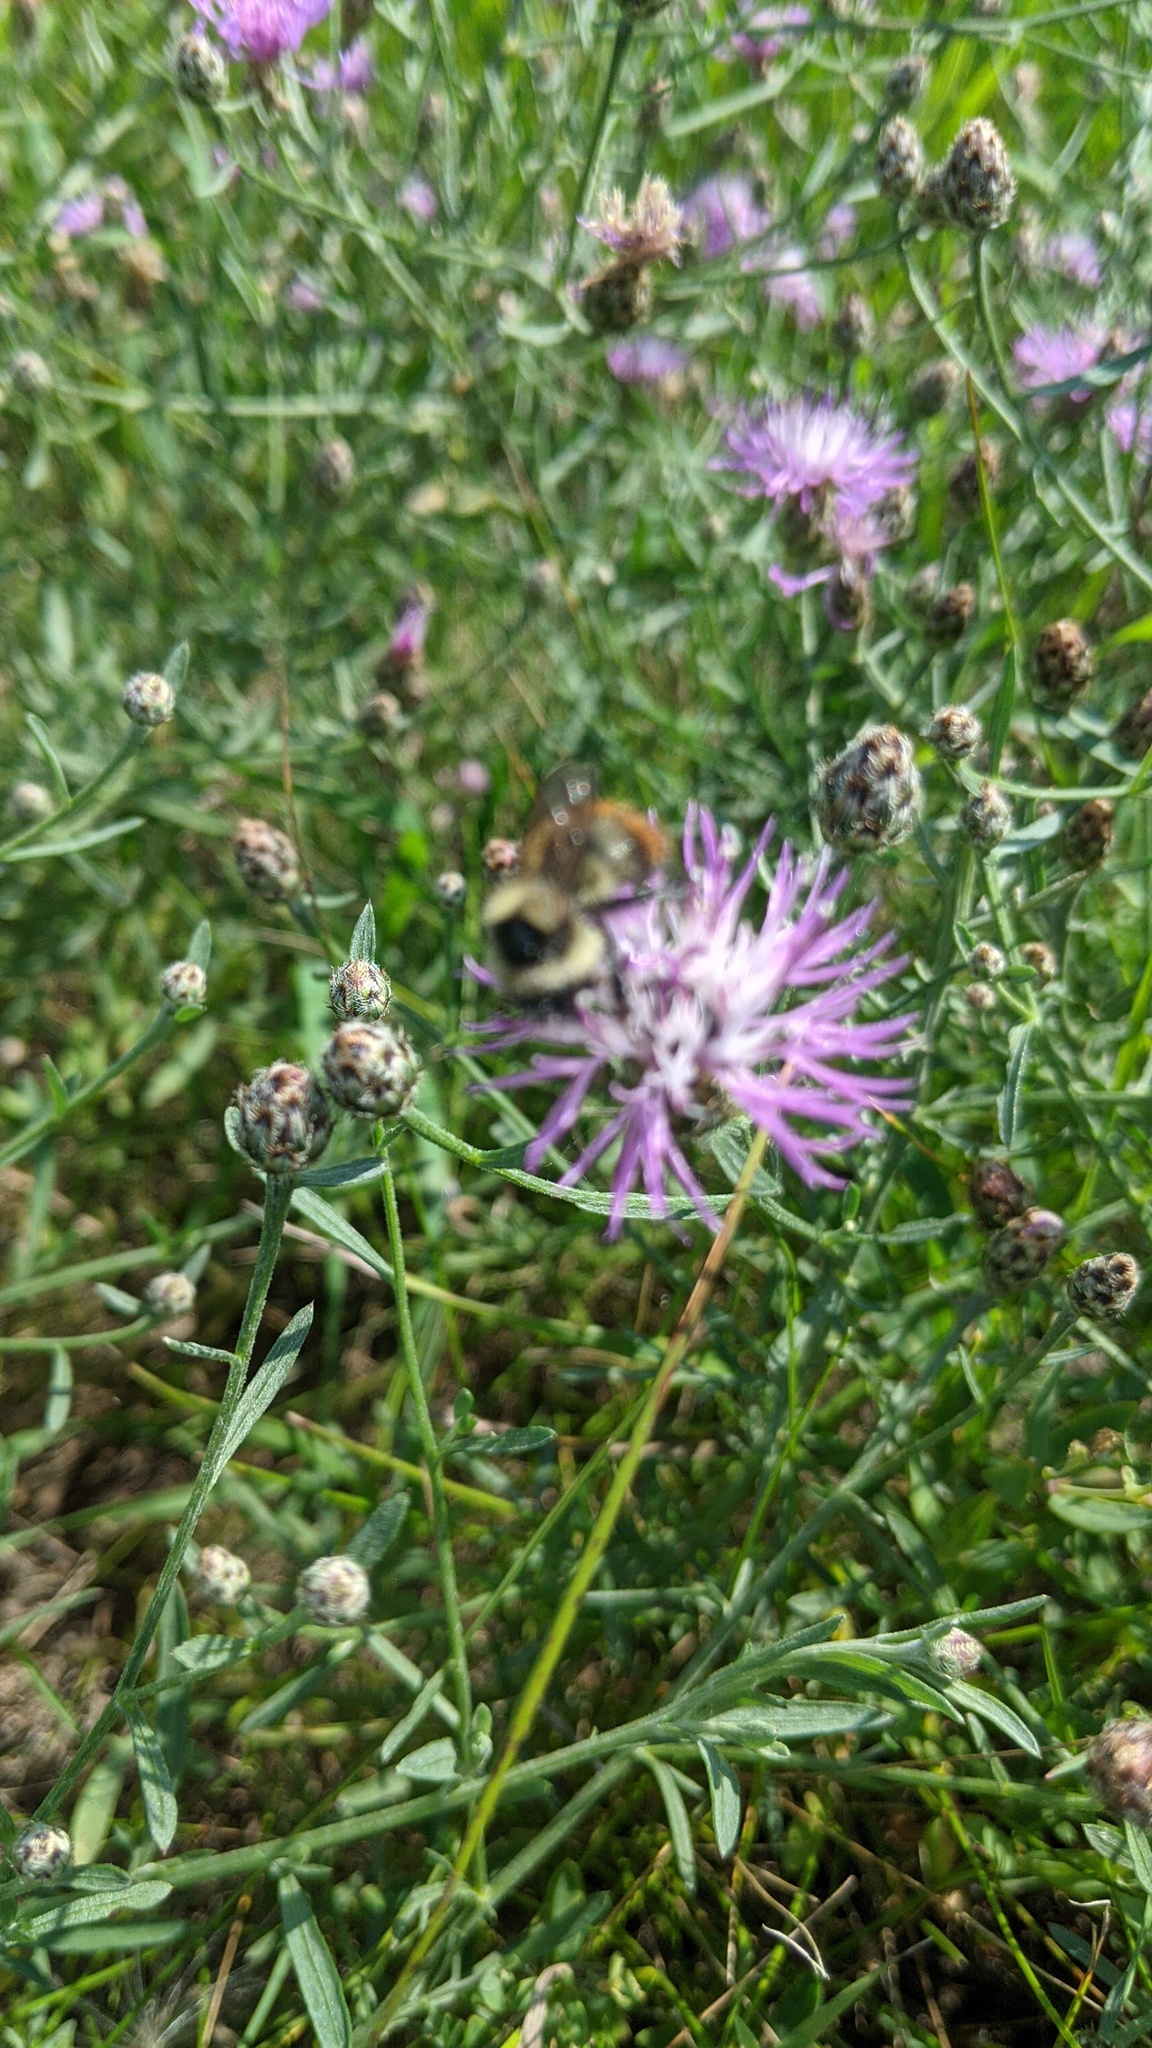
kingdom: Animalia
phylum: Arthropoda
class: Insecta
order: Hymenoptera
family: Apidae
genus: Bombus
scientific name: Bombus rufocinctus
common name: Red-belted bumble bee
